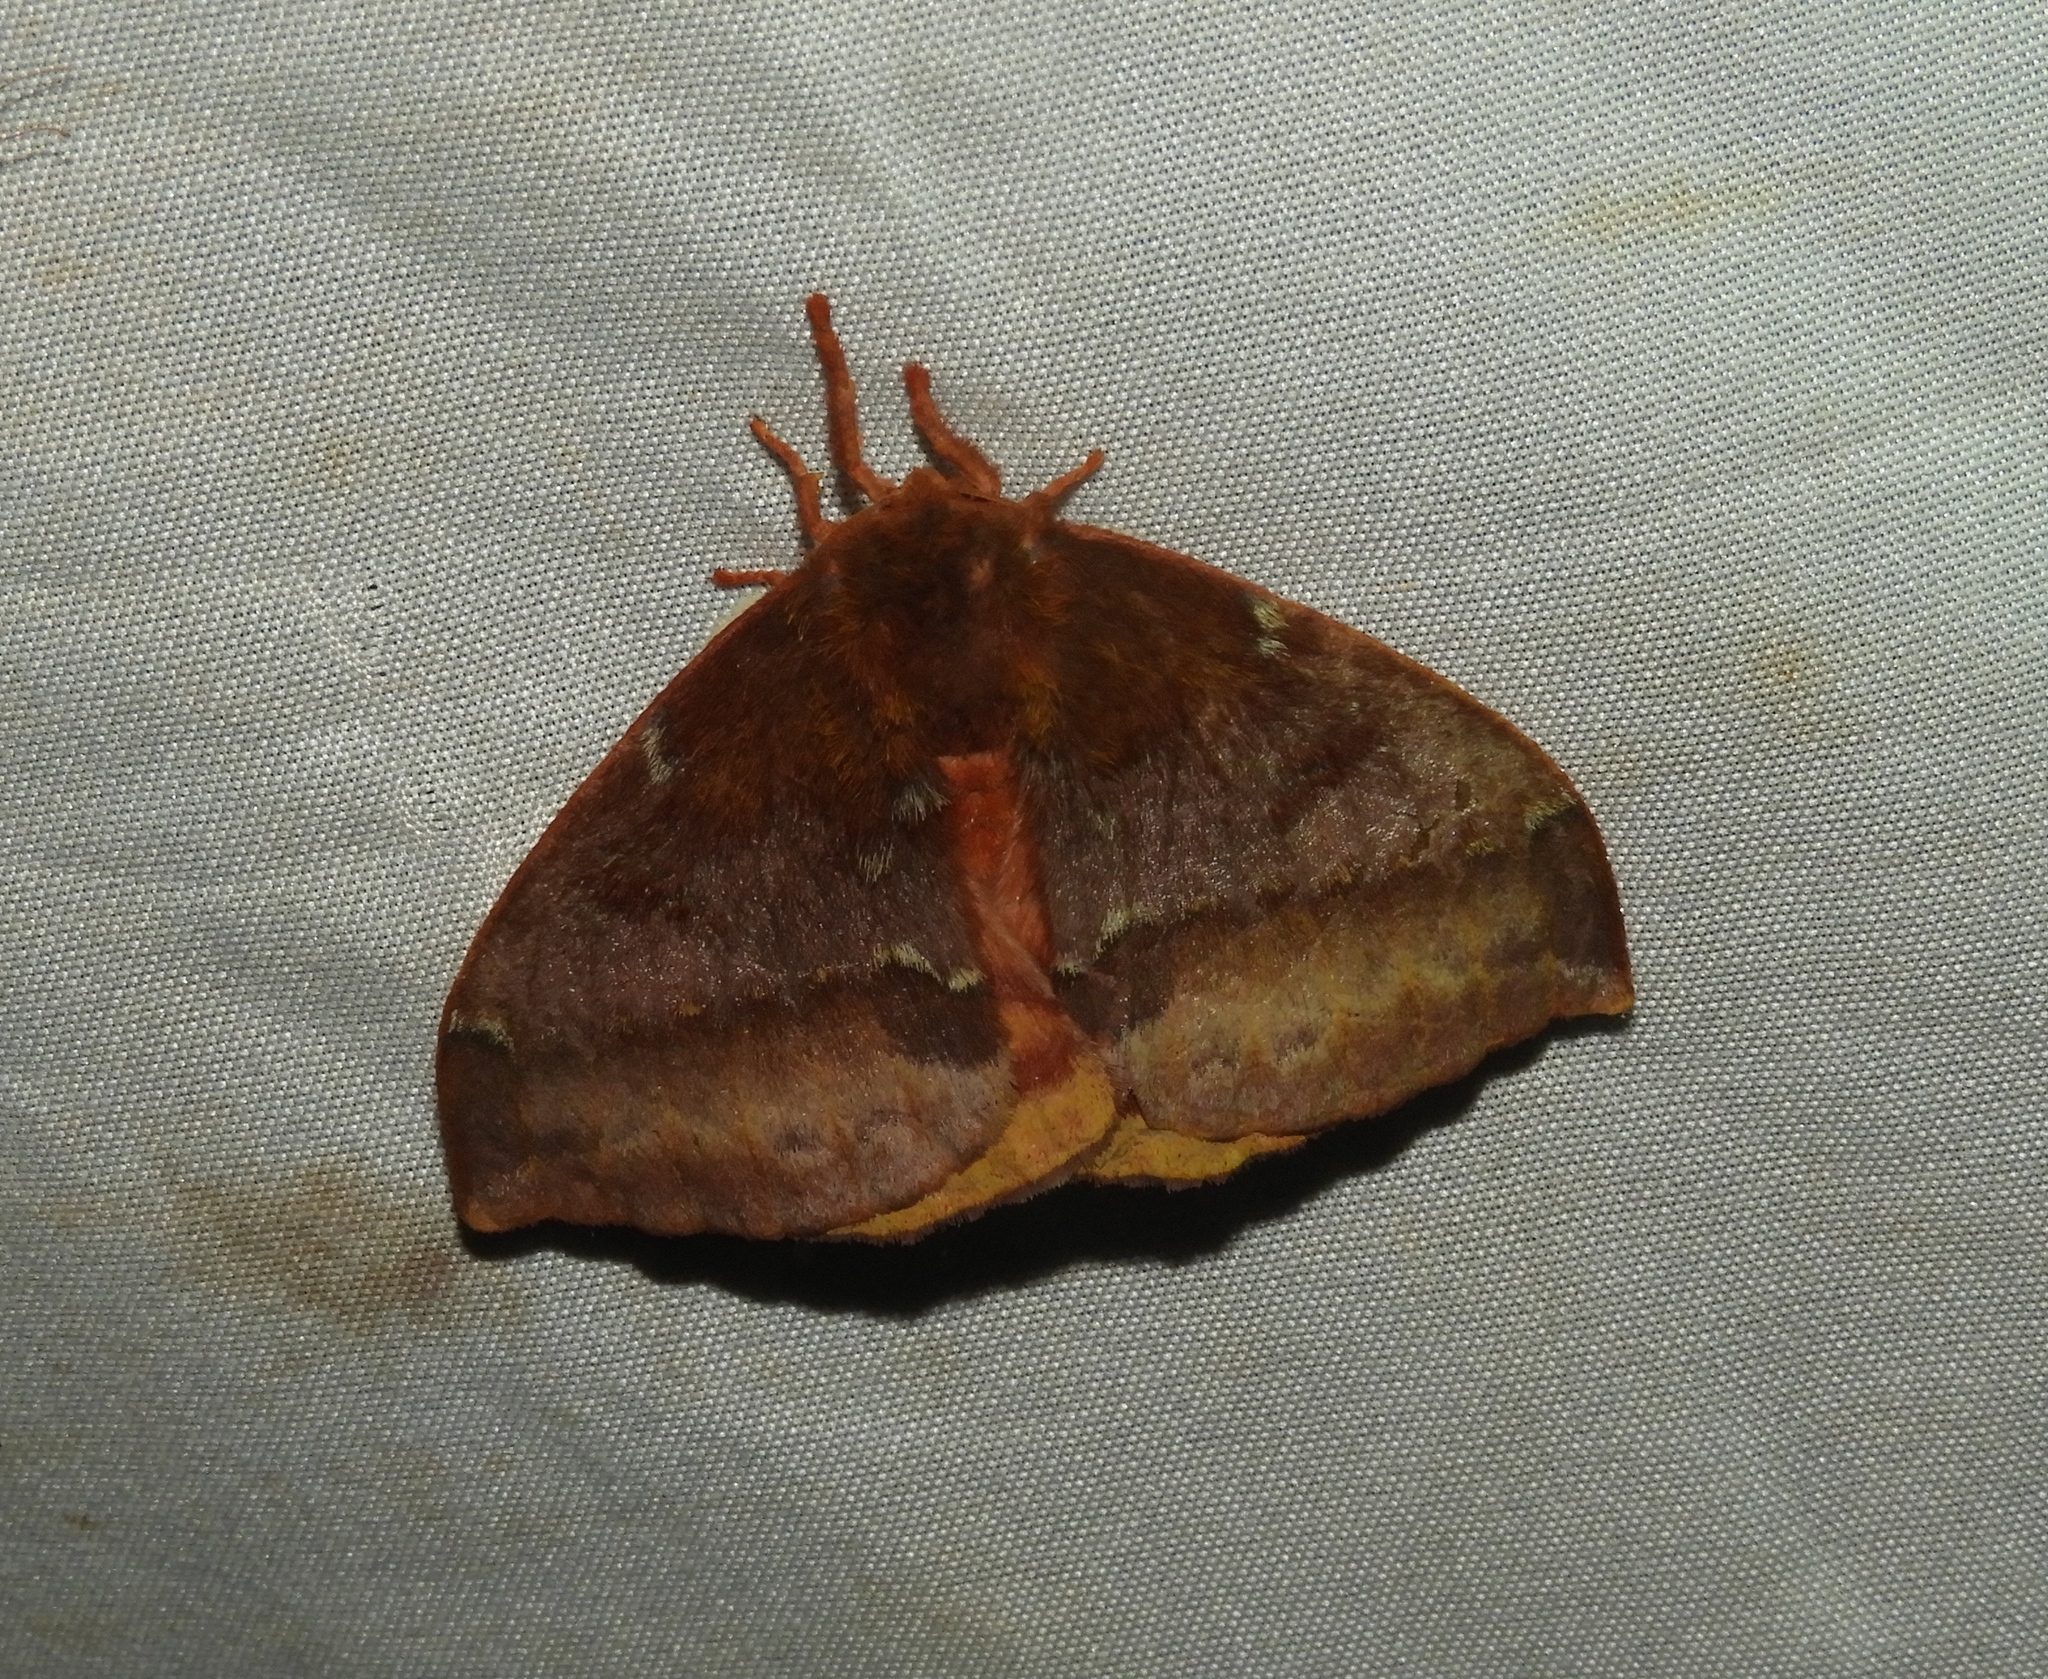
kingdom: Animalia
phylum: Arthropoda
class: Insecta
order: Lepidoptera
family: Saturniidae
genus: Automeris
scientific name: Automeris
